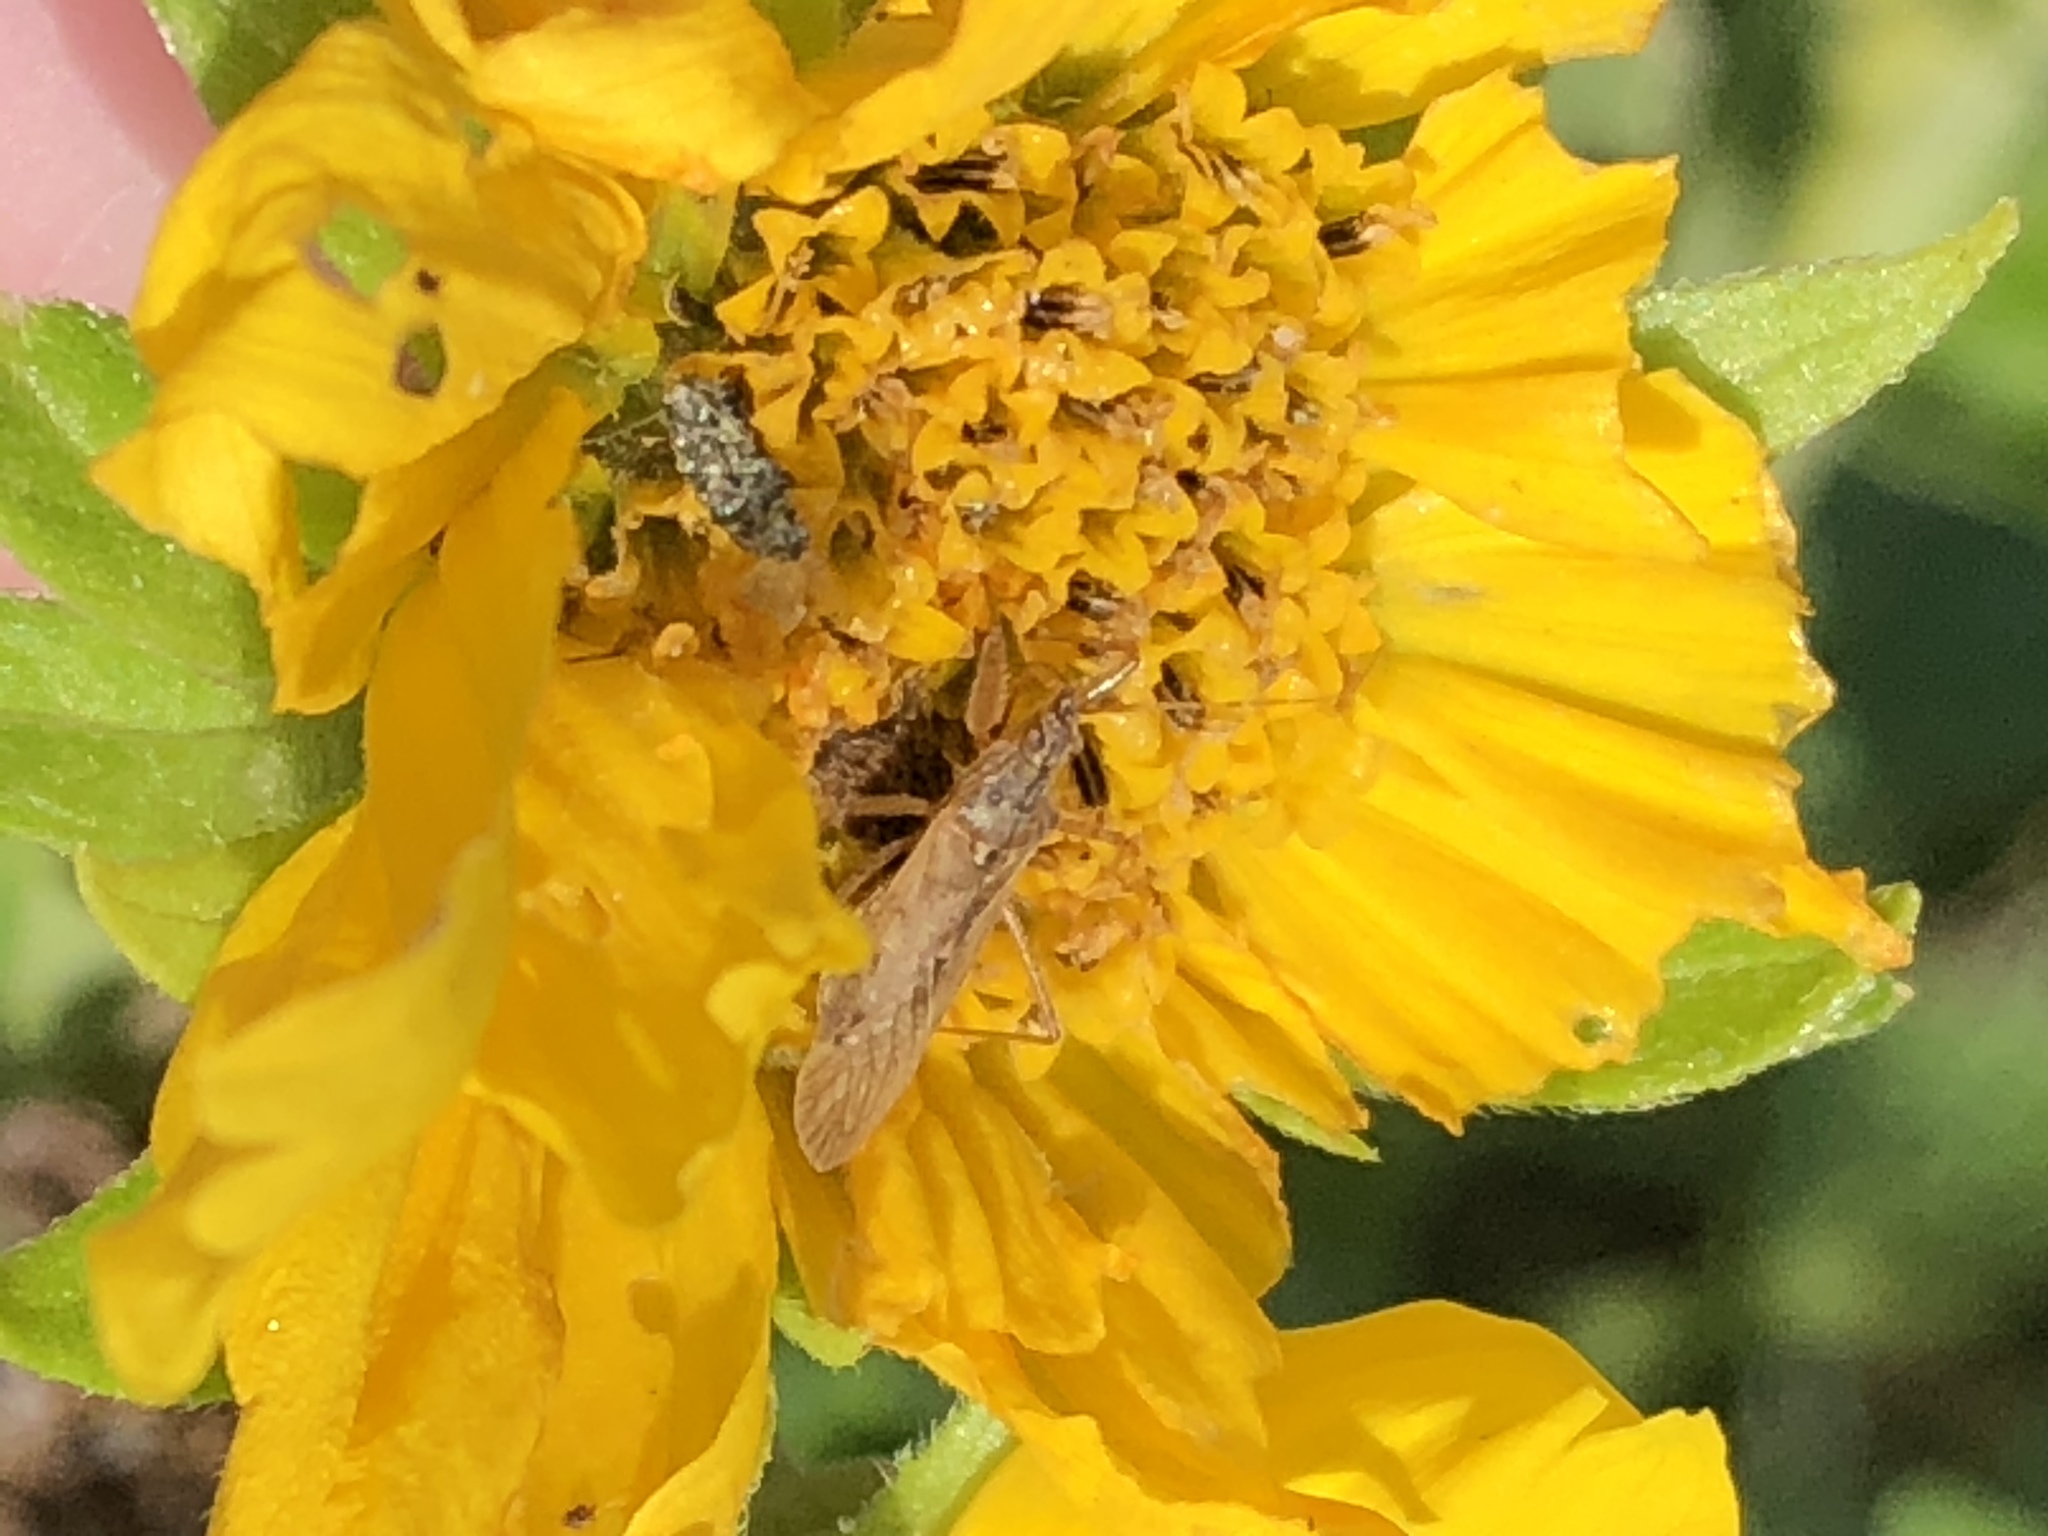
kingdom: Animalia
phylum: Arthropoda
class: Insecta
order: Hemiptera
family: Nabidae
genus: Nabis
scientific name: Nabis capsiformis
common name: Pale damsel bug
